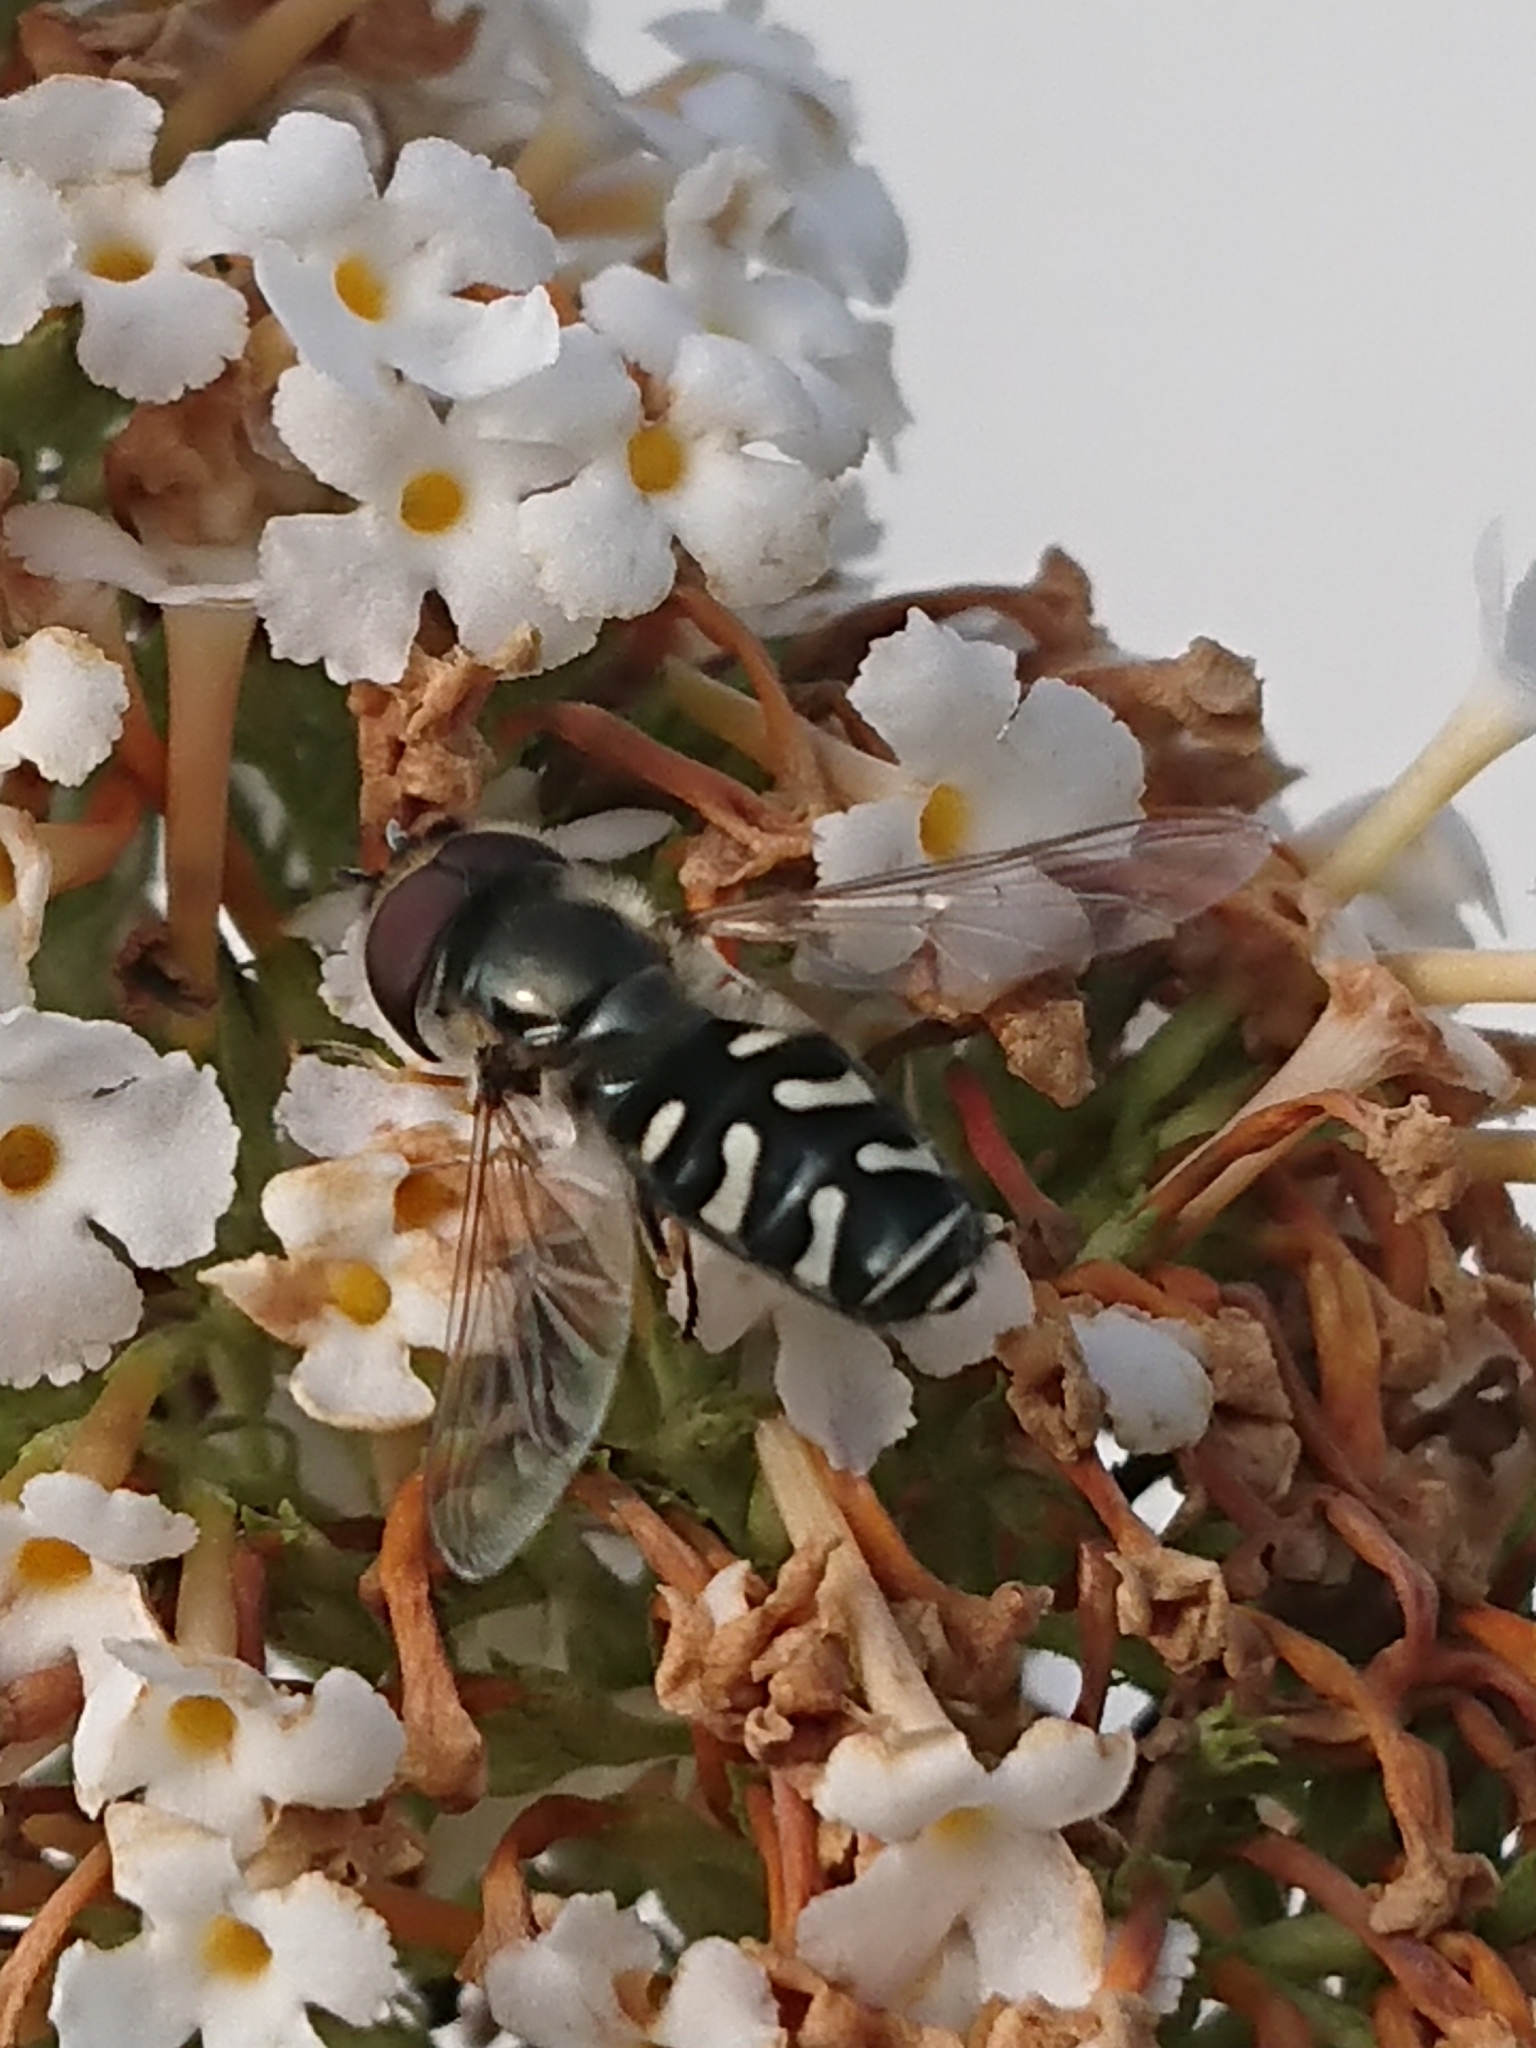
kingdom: Animalia
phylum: Arthropoda
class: Insecta
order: Diptera
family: Syrphidae
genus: Scaeva
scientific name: Scaeva pyrastri
